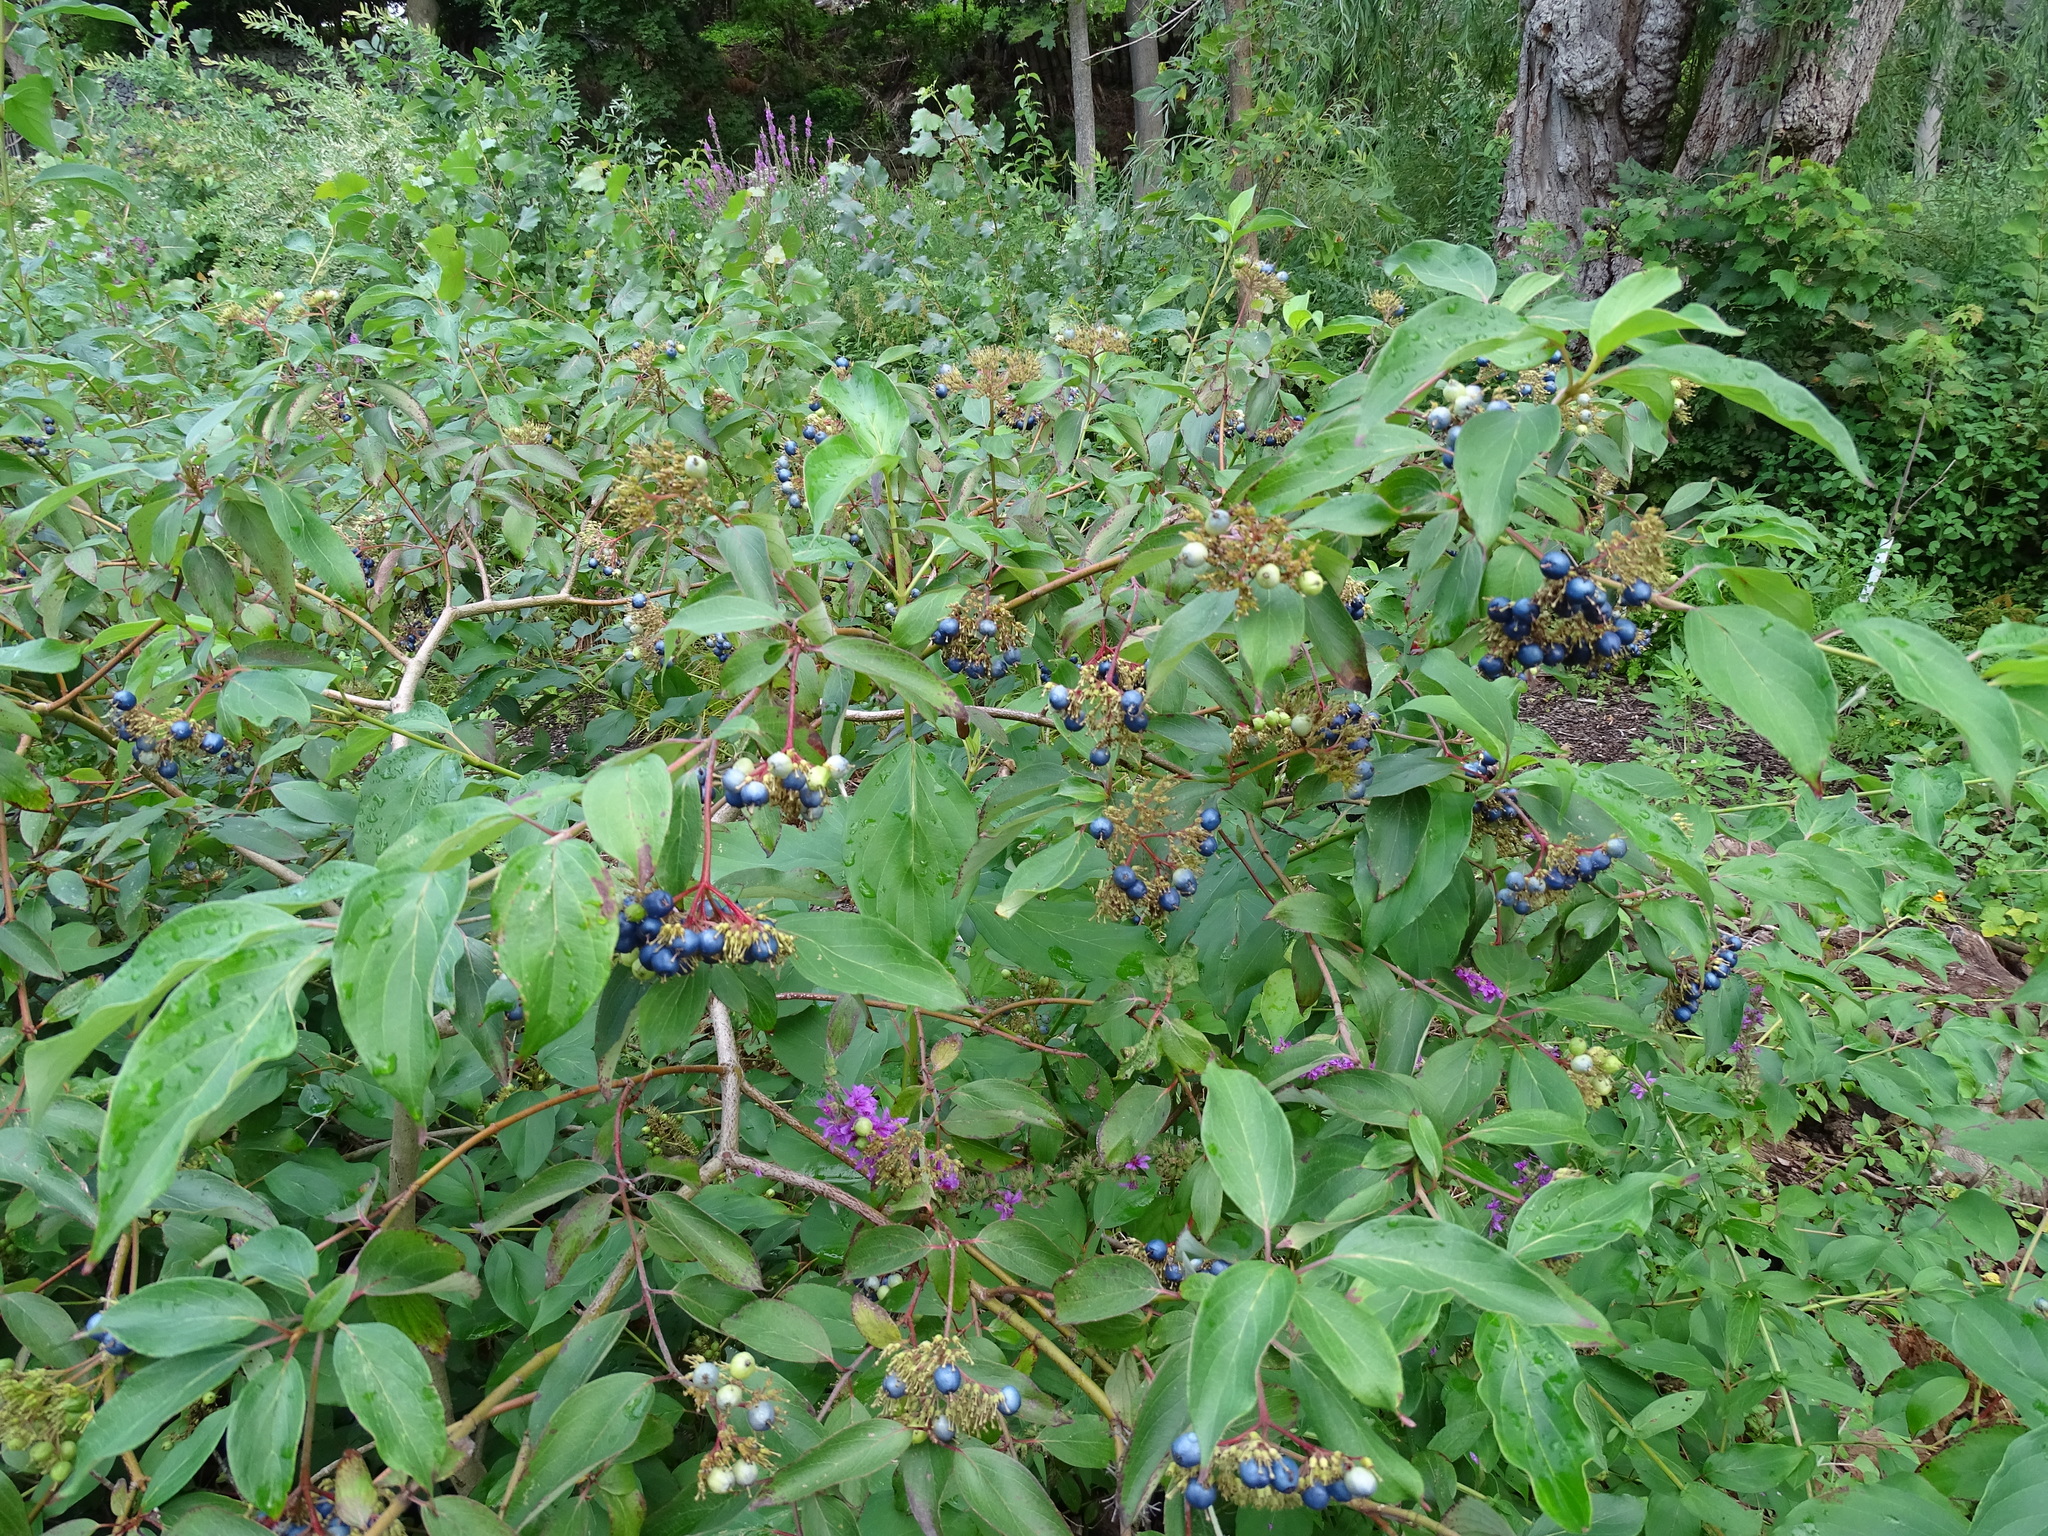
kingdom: Plantae
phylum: Tracheophyta
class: Magnoliopsida
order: Cornales
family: Cornaceae
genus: Cornus
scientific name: Cornus amomum
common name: Silky dogwood
